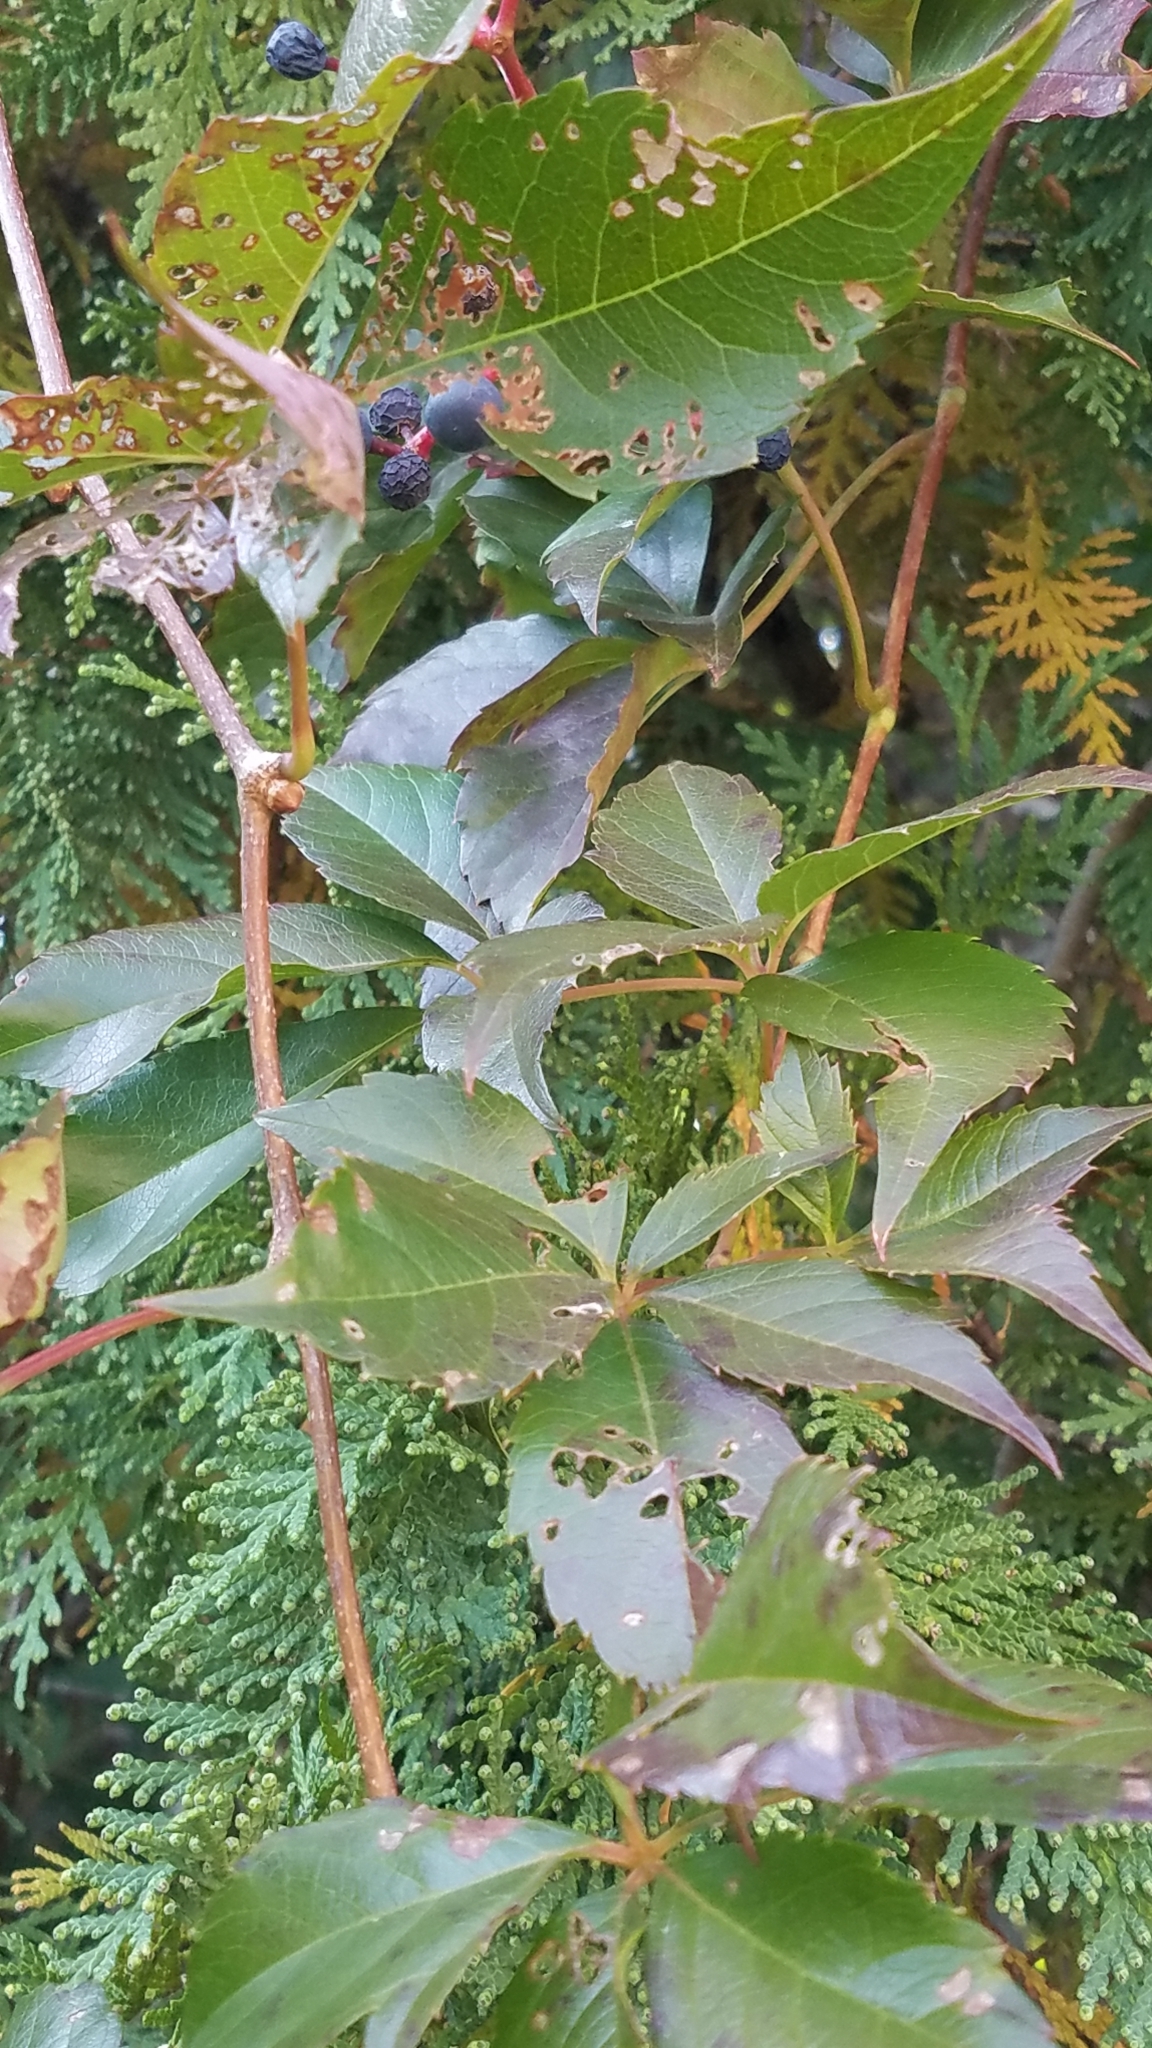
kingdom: Plantae
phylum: Tracheophyta
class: Magnoliopsida
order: Vitales
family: Vitaceae
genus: Parthenocissus
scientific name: Parthenocissus quinquefolia
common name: Virginia-creeper
